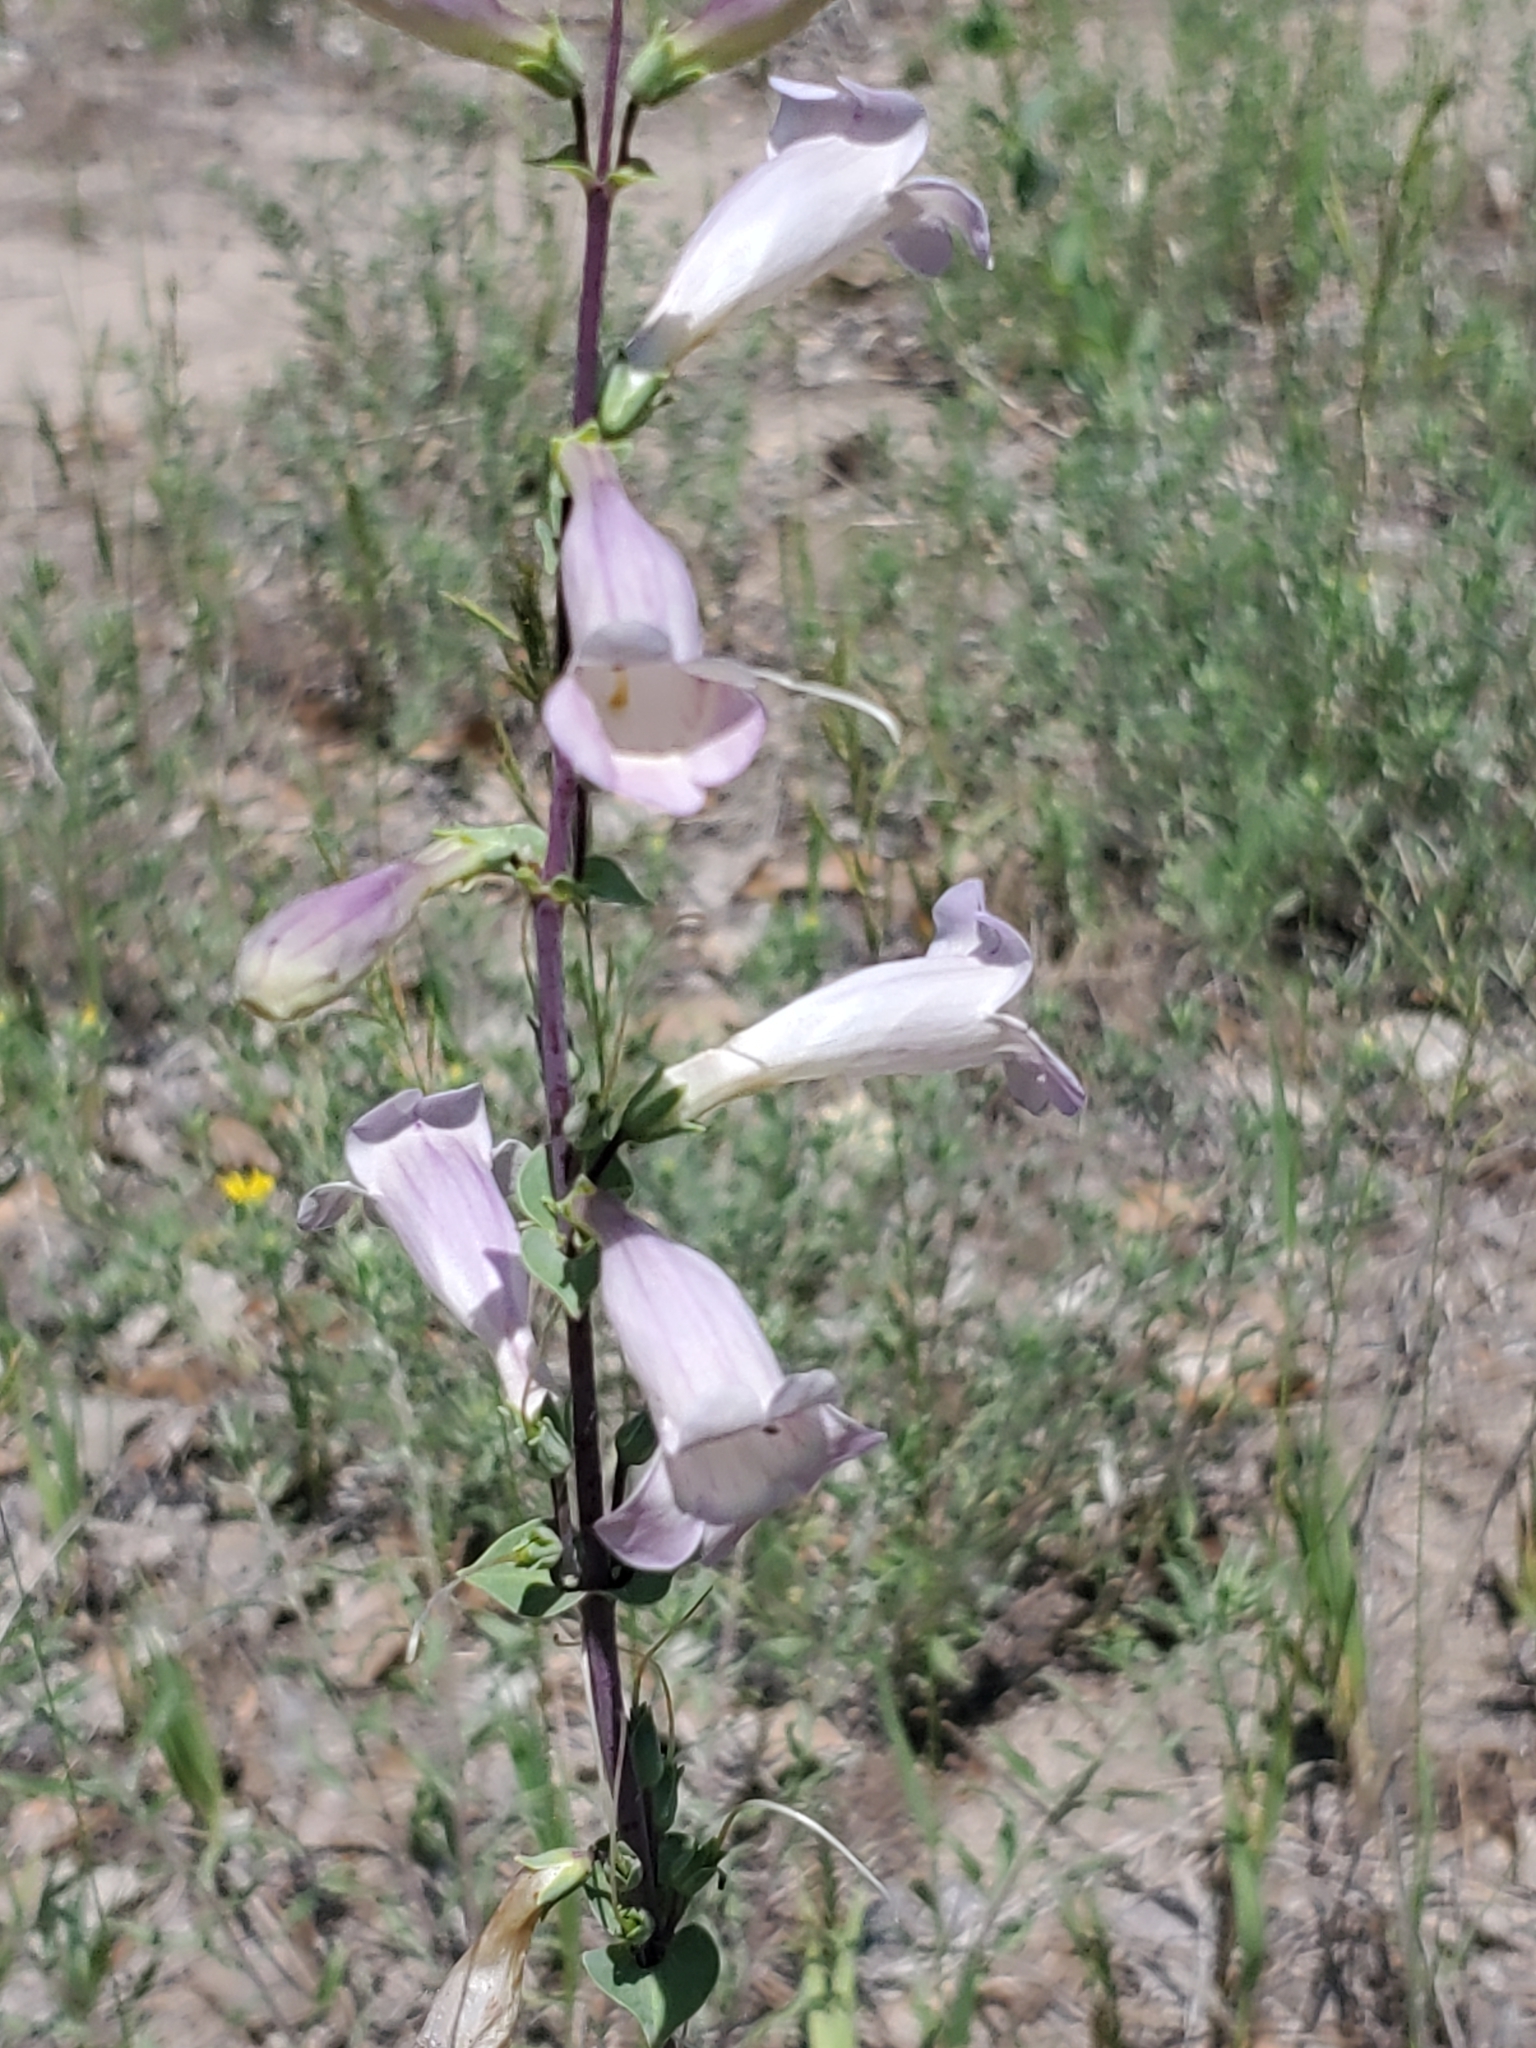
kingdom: Plantae
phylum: Tracheophyta
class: Magnoliopsida
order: Lamiales
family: Plantaginaceae
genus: Penstemon
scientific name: Penstemon
